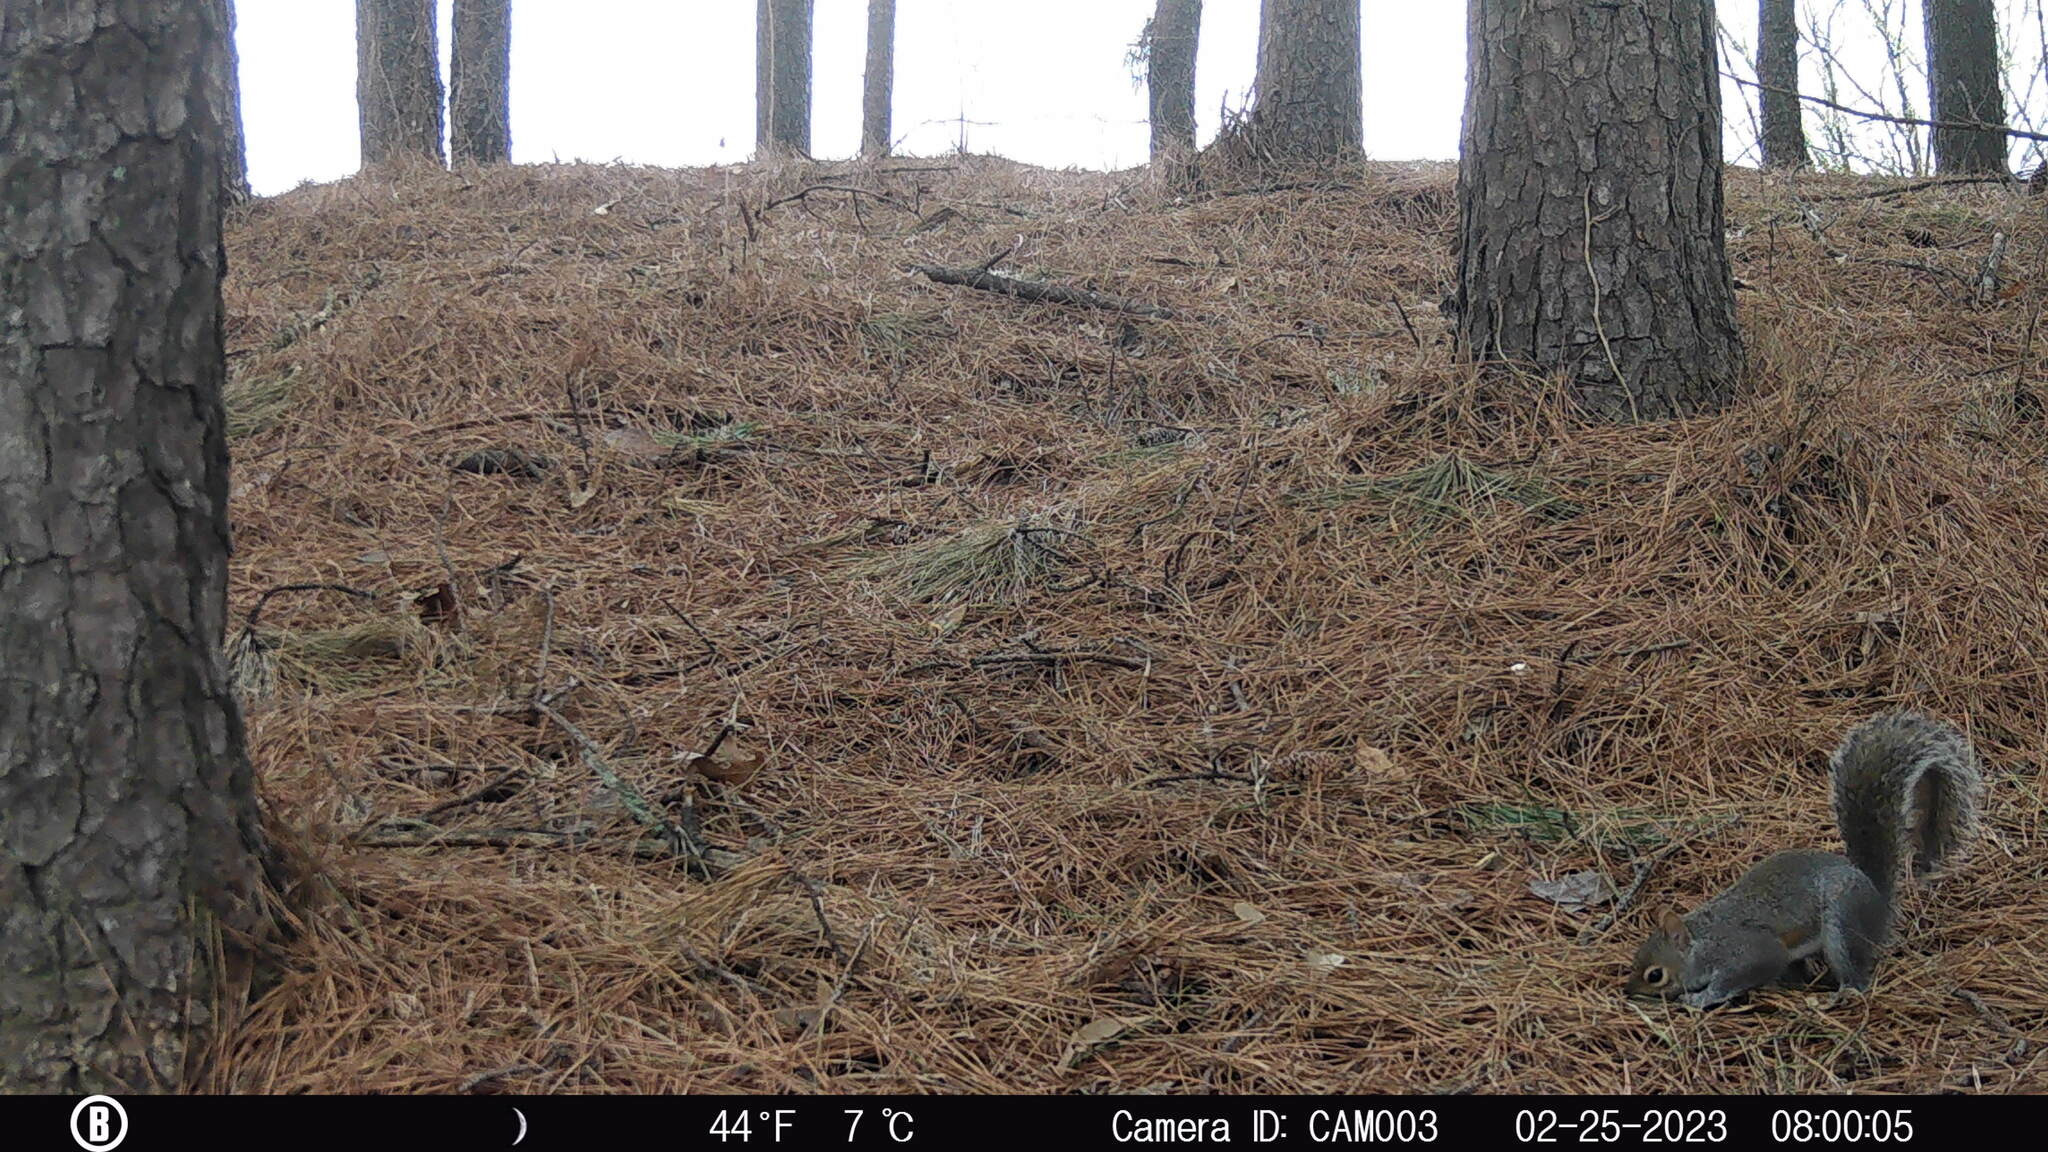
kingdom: Animalia
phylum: Chordata
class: Mammalia
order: Rodentia
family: Sciuridae
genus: Sciurus
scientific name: Sciurus carolinensis
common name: Eastern gray squirrel
